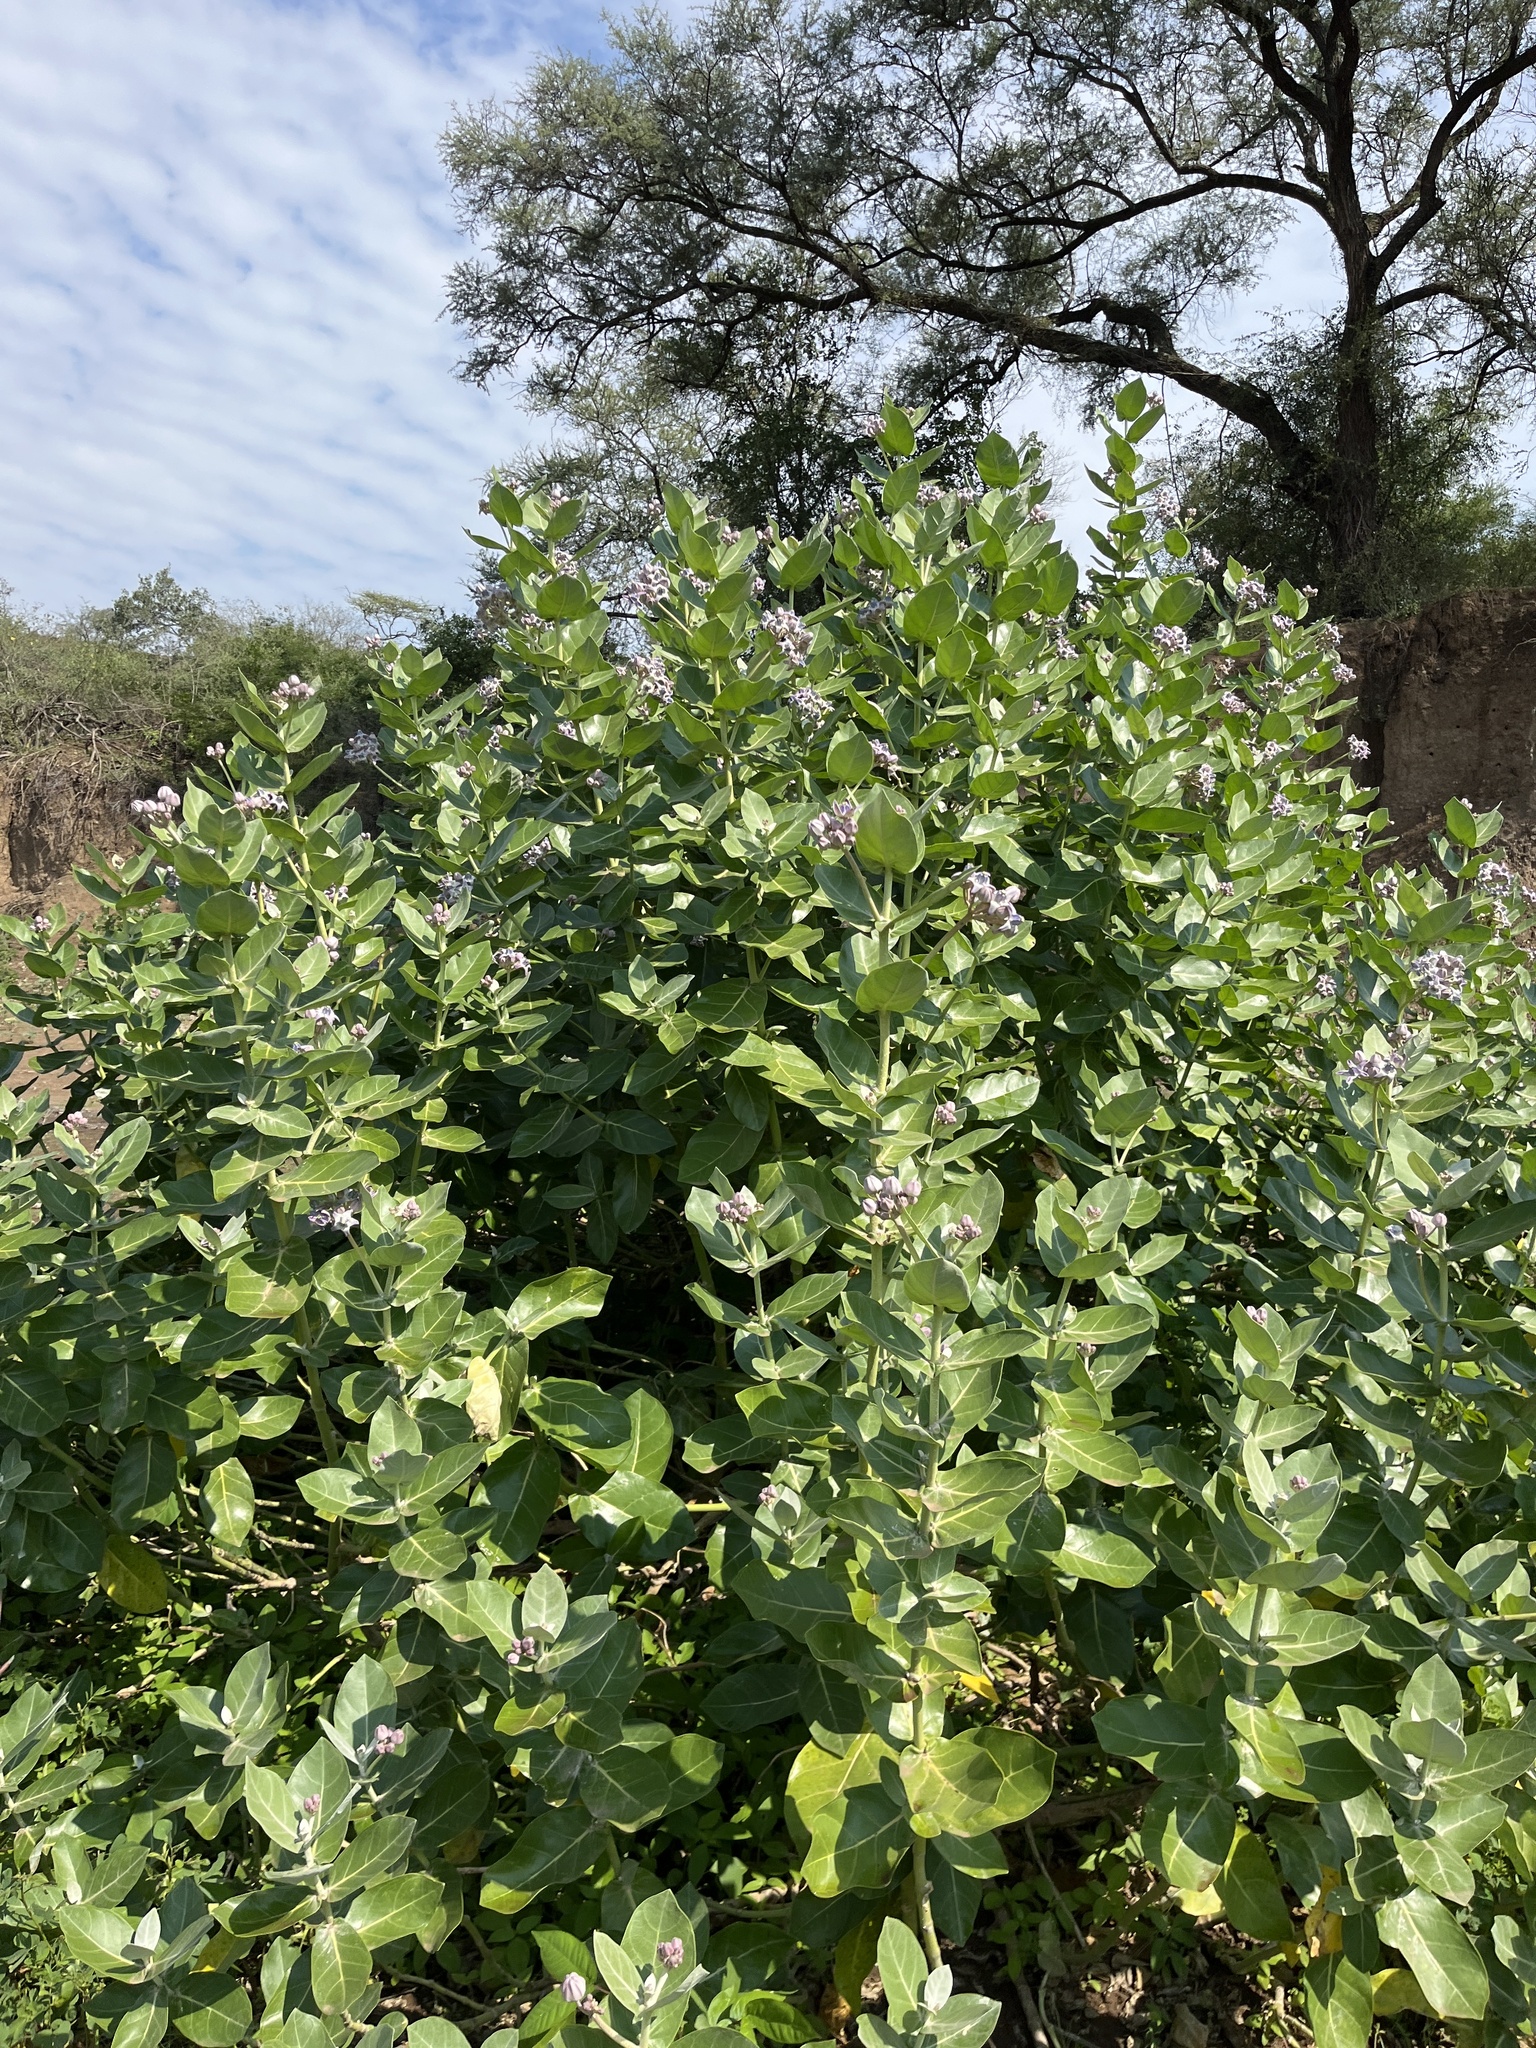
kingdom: Plantae
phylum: Tracheophyta
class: Magnoliopsida
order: Gentianales
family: Apocynaceae
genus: Calotropis
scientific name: Calotropis gigantea
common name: Crown flower
